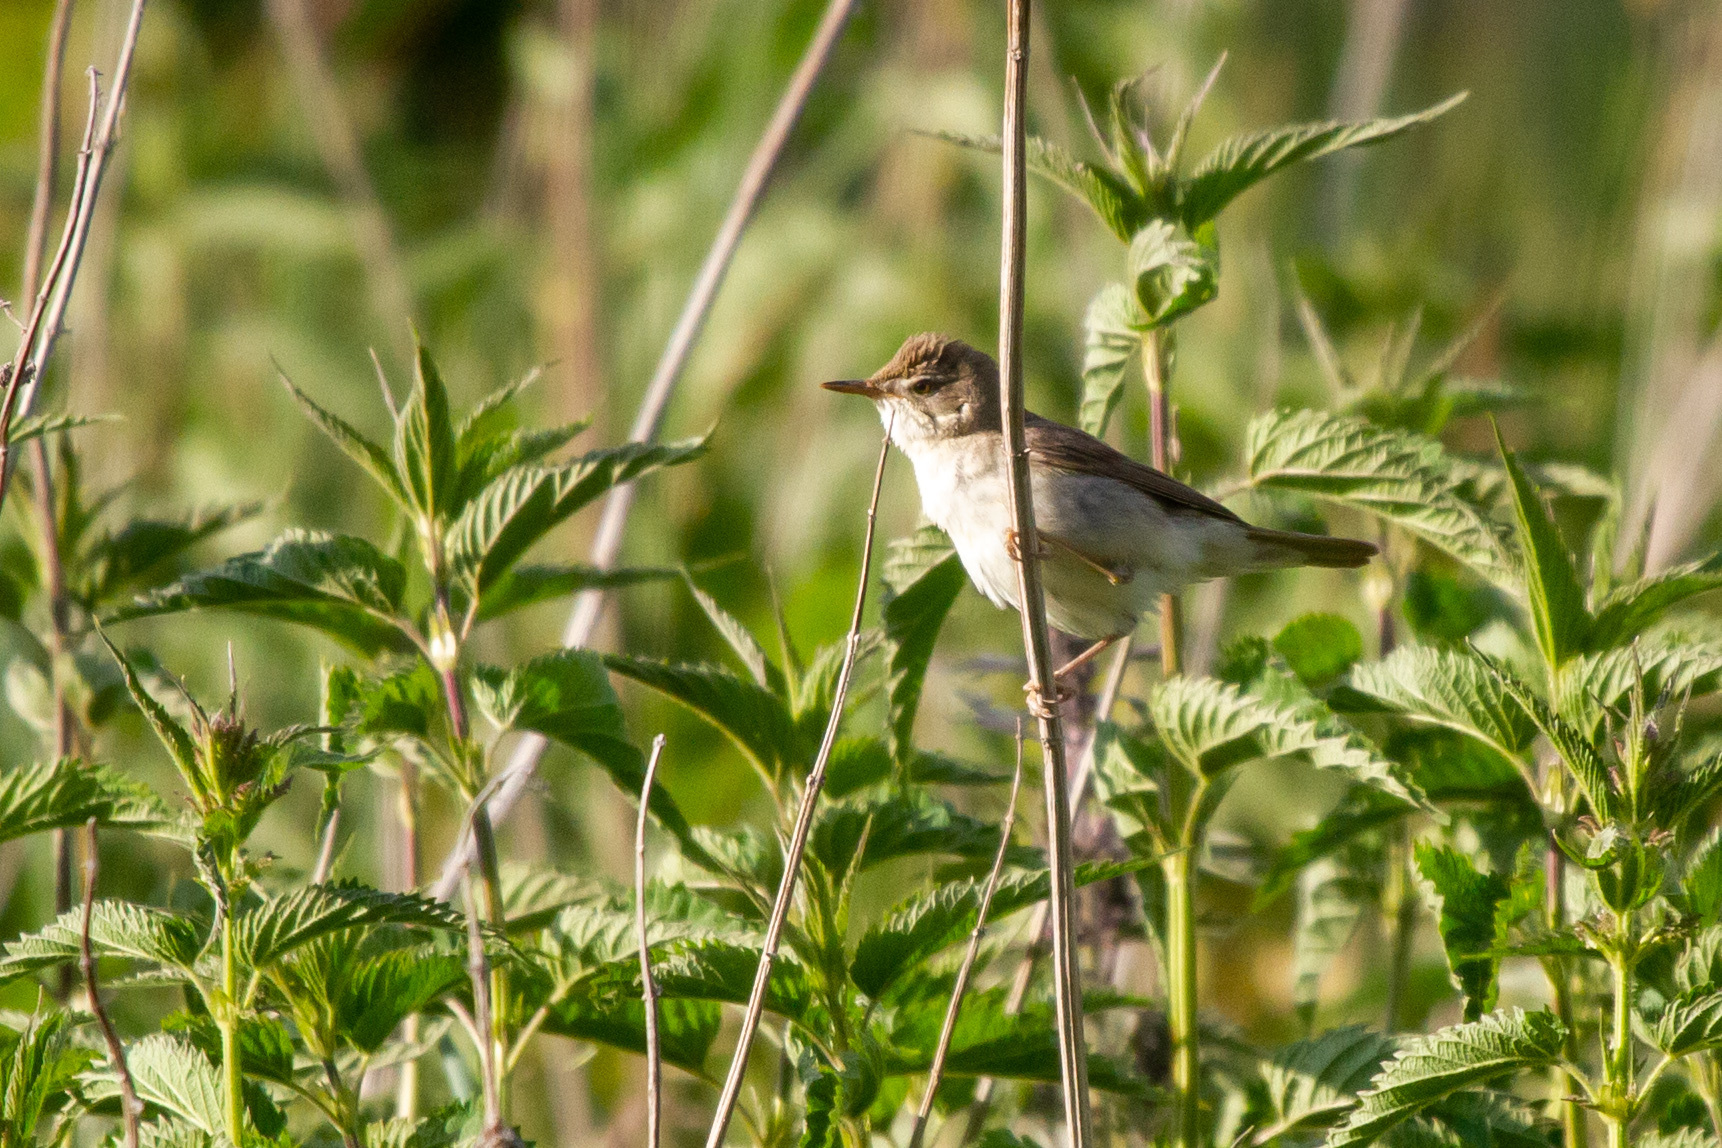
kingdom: Animalia
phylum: Chordata
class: Aves
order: Passeriformes
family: Acrocephalidae
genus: Acrocephalus
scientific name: Acrocephalus dumetorum
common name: Blyth's reed warbler
